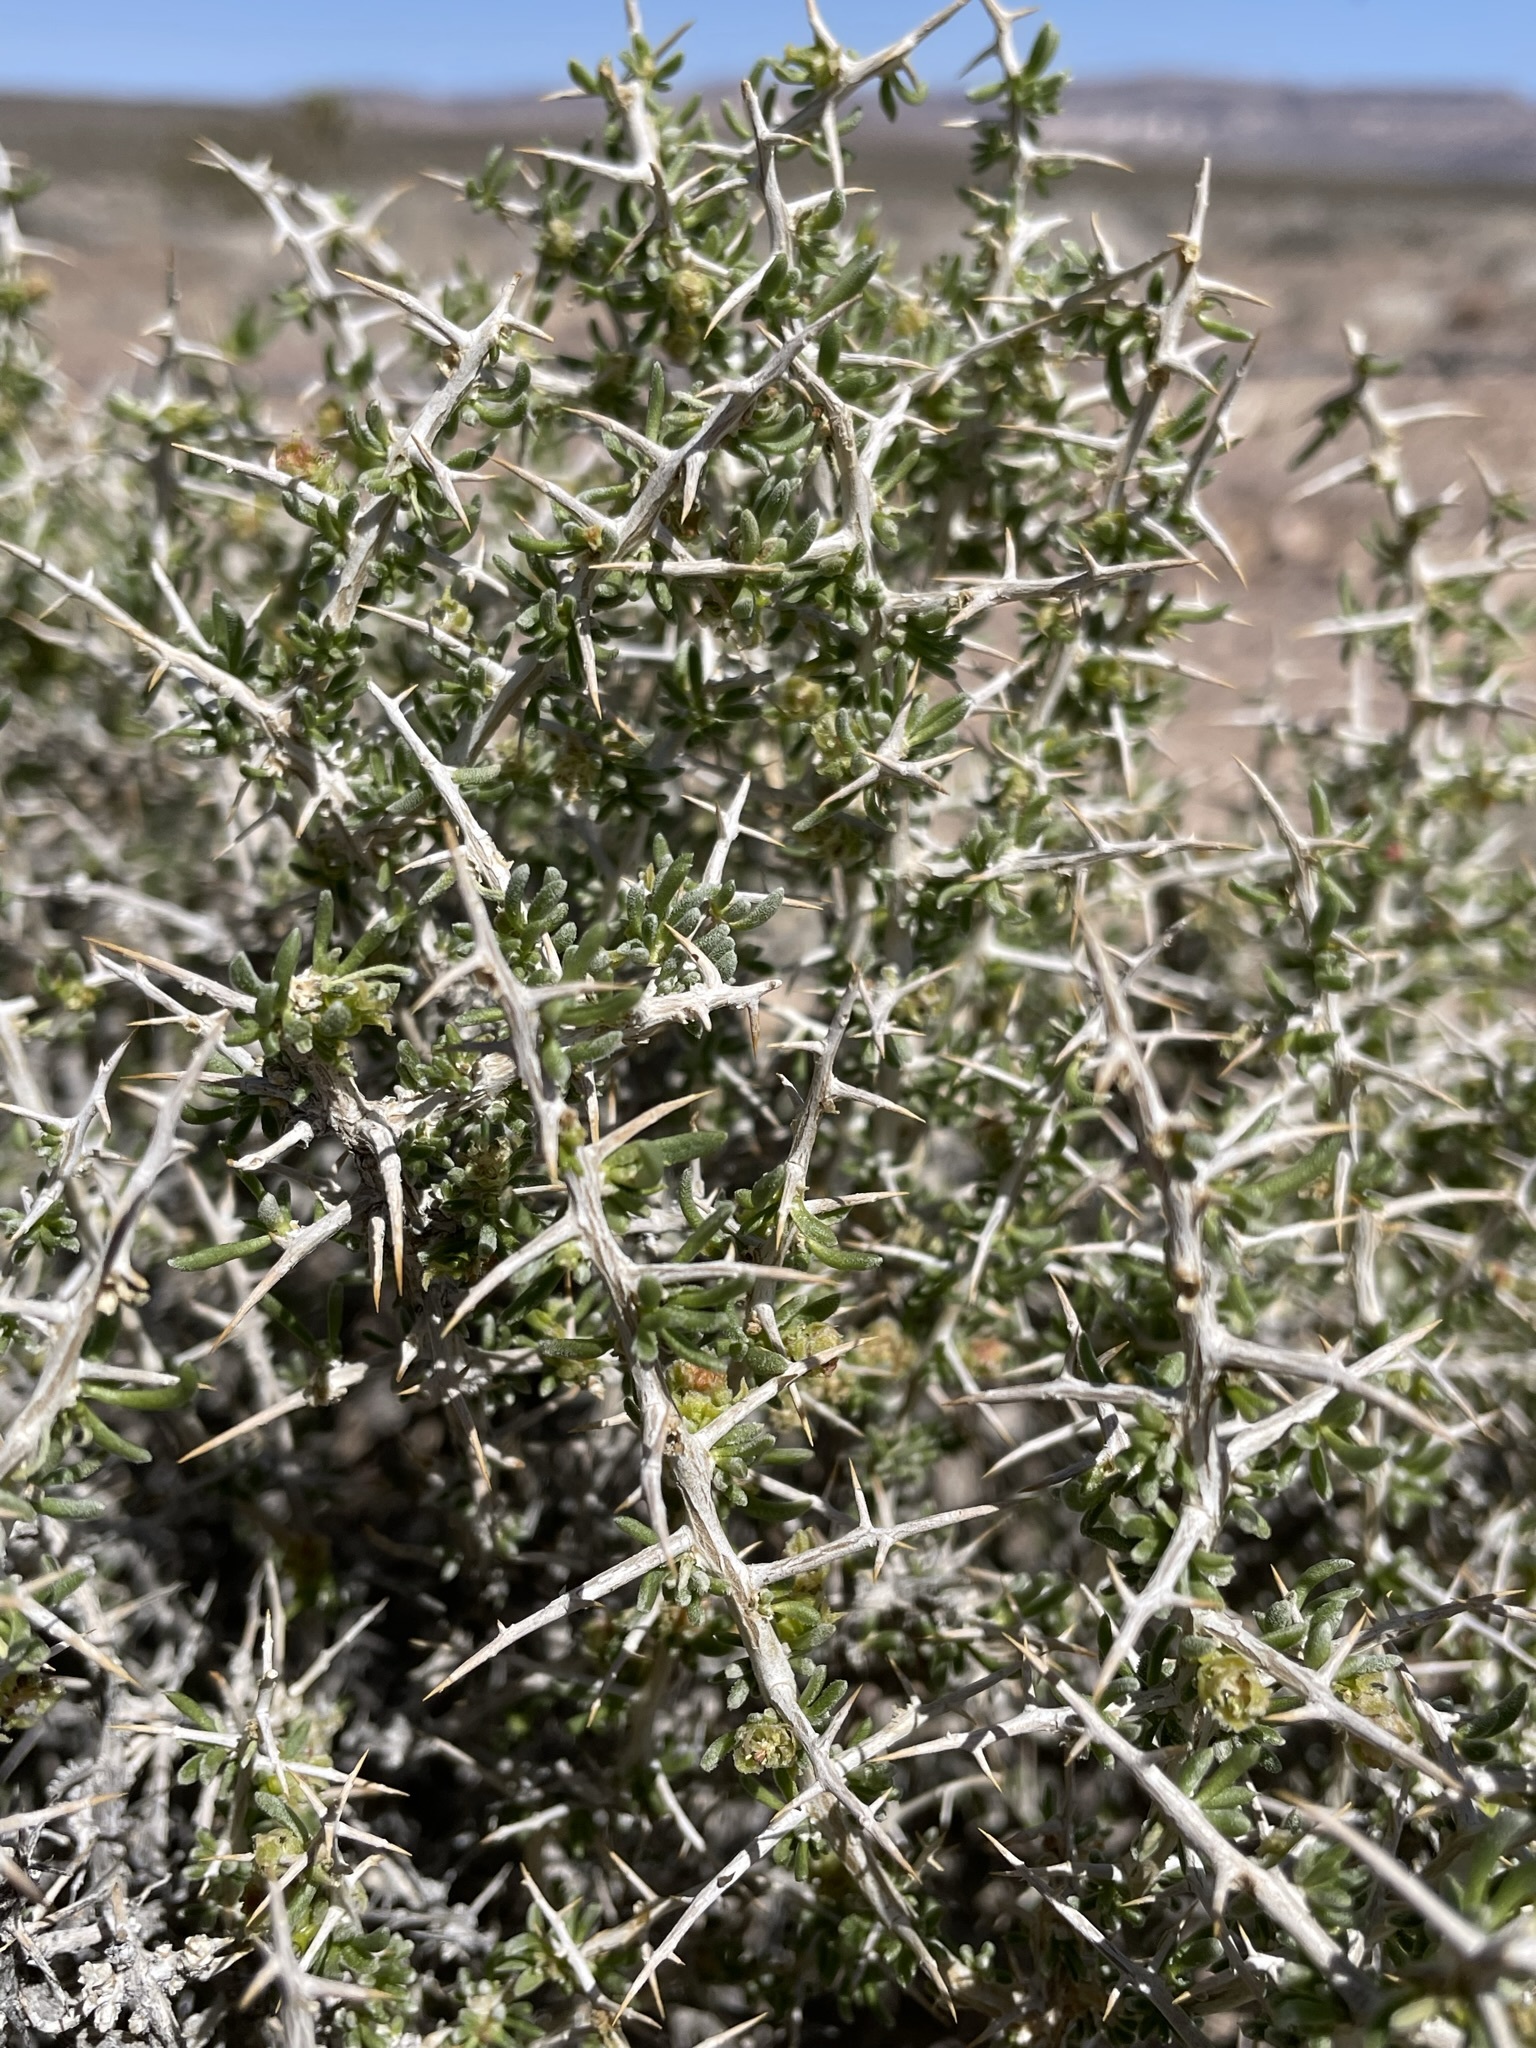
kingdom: Plantae
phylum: Tracheophyta
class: Magnoliopsida
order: Caryophyllales
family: Sarcobataceae
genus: Sarcobatus
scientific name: Sarcobatus baileyi
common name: Bailey greasewood
